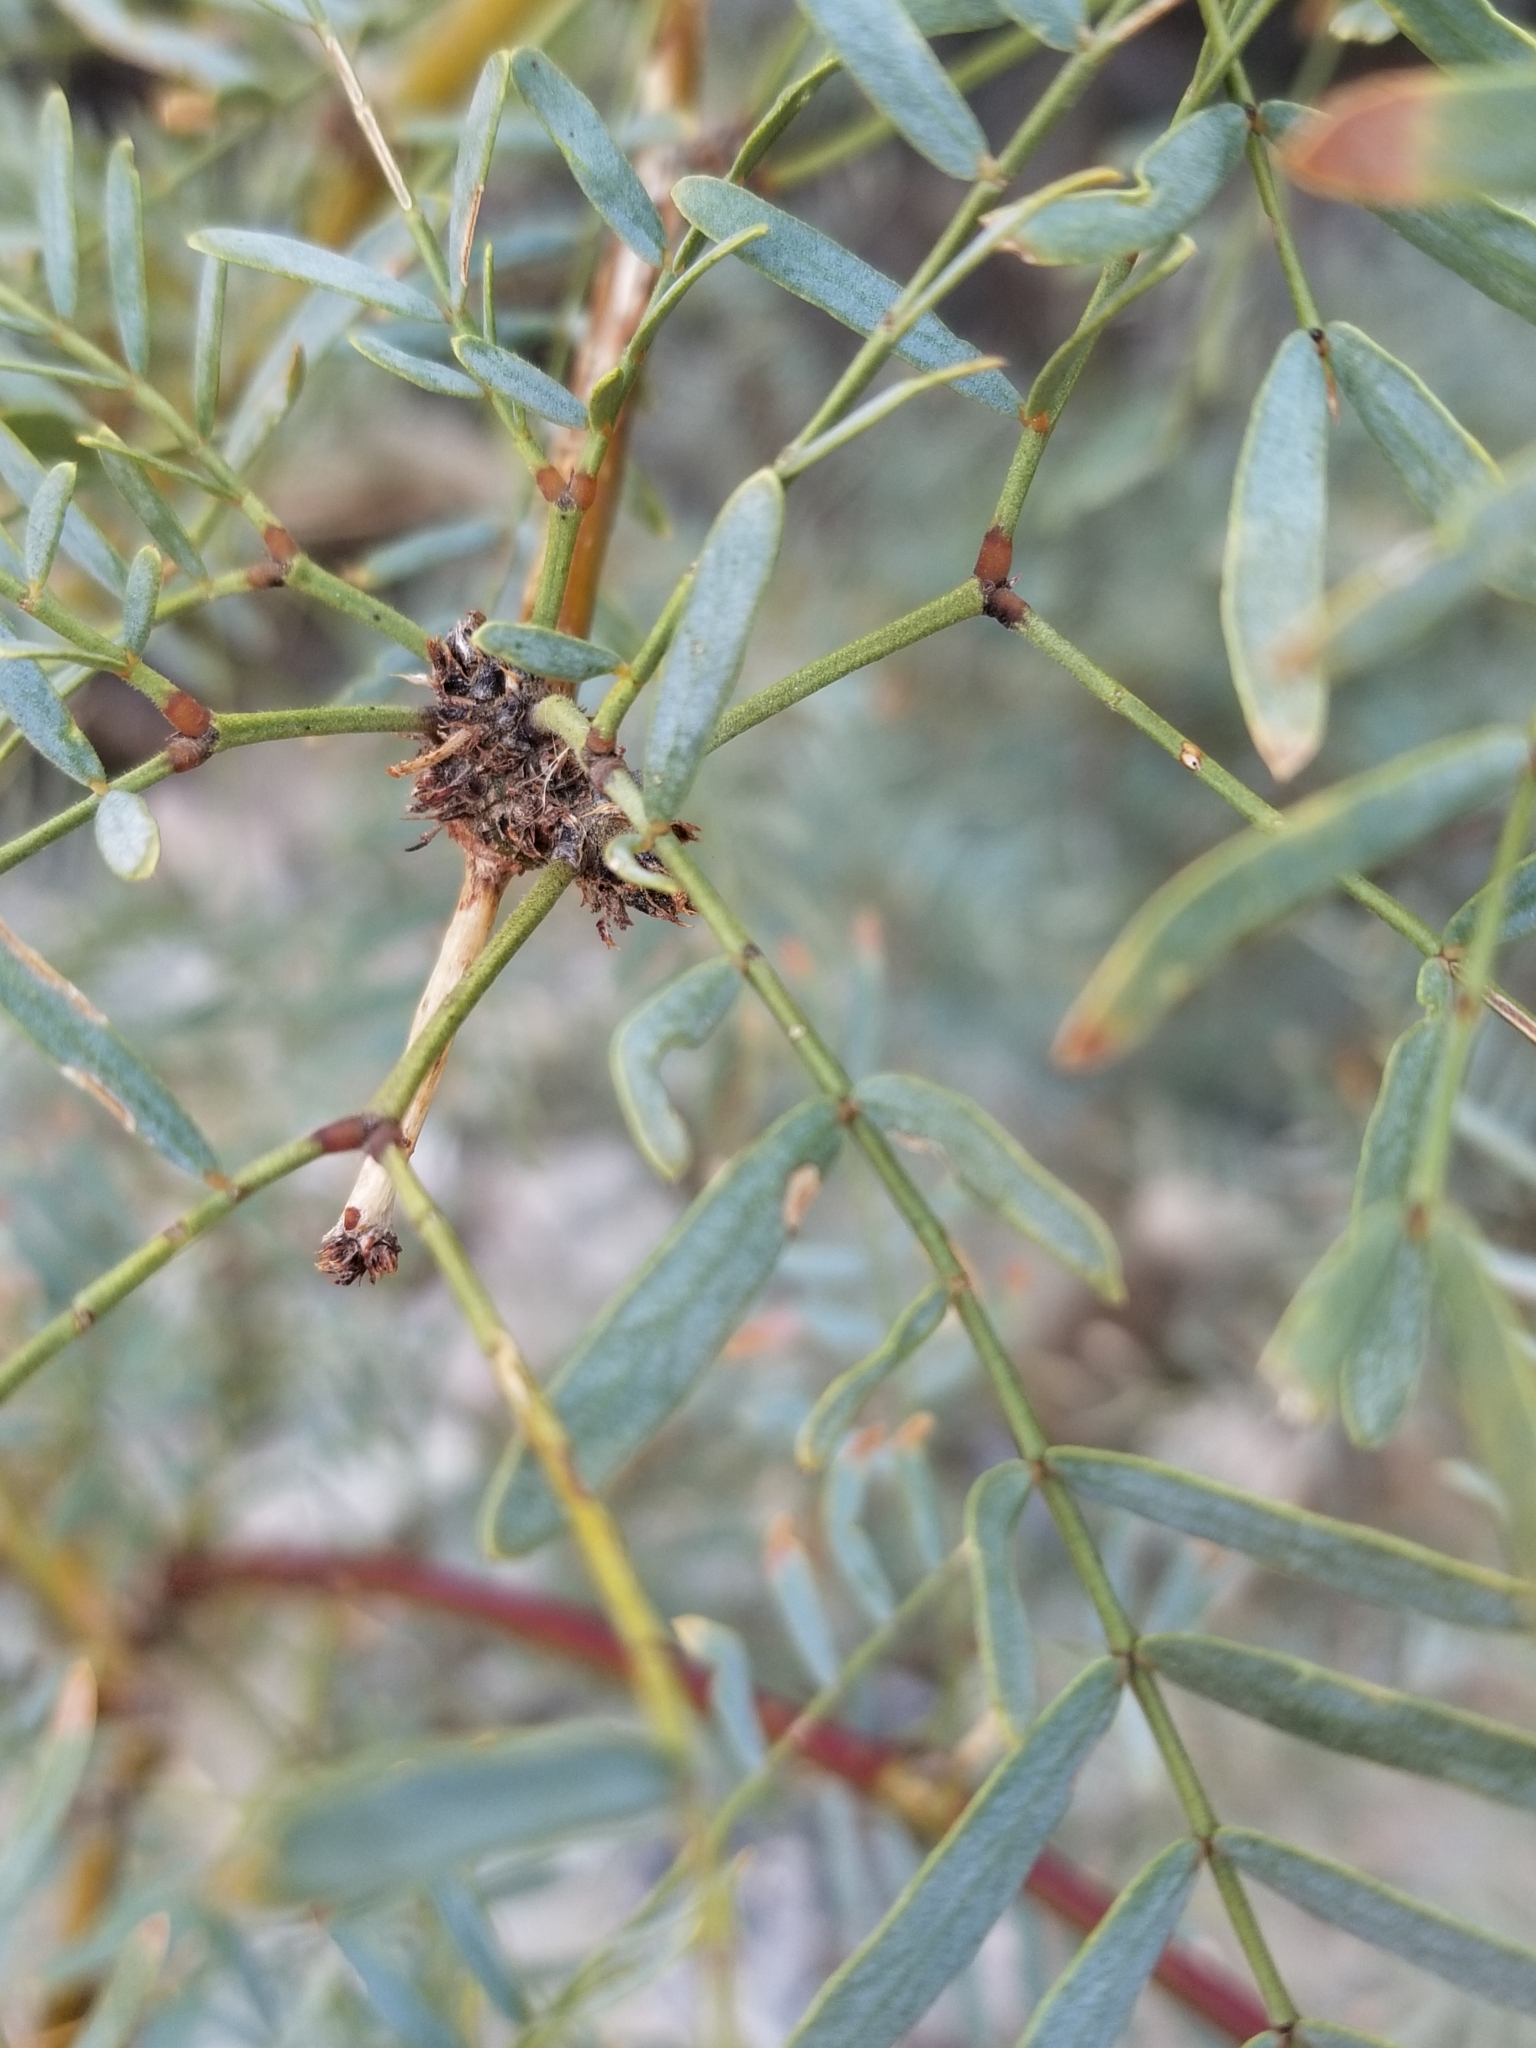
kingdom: Plantae
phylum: Tracheophyta
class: Magnoliopsida
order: Fabales
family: Fabaceae
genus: Prosopis
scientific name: Prosopis pubescens
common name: Screw-bean
